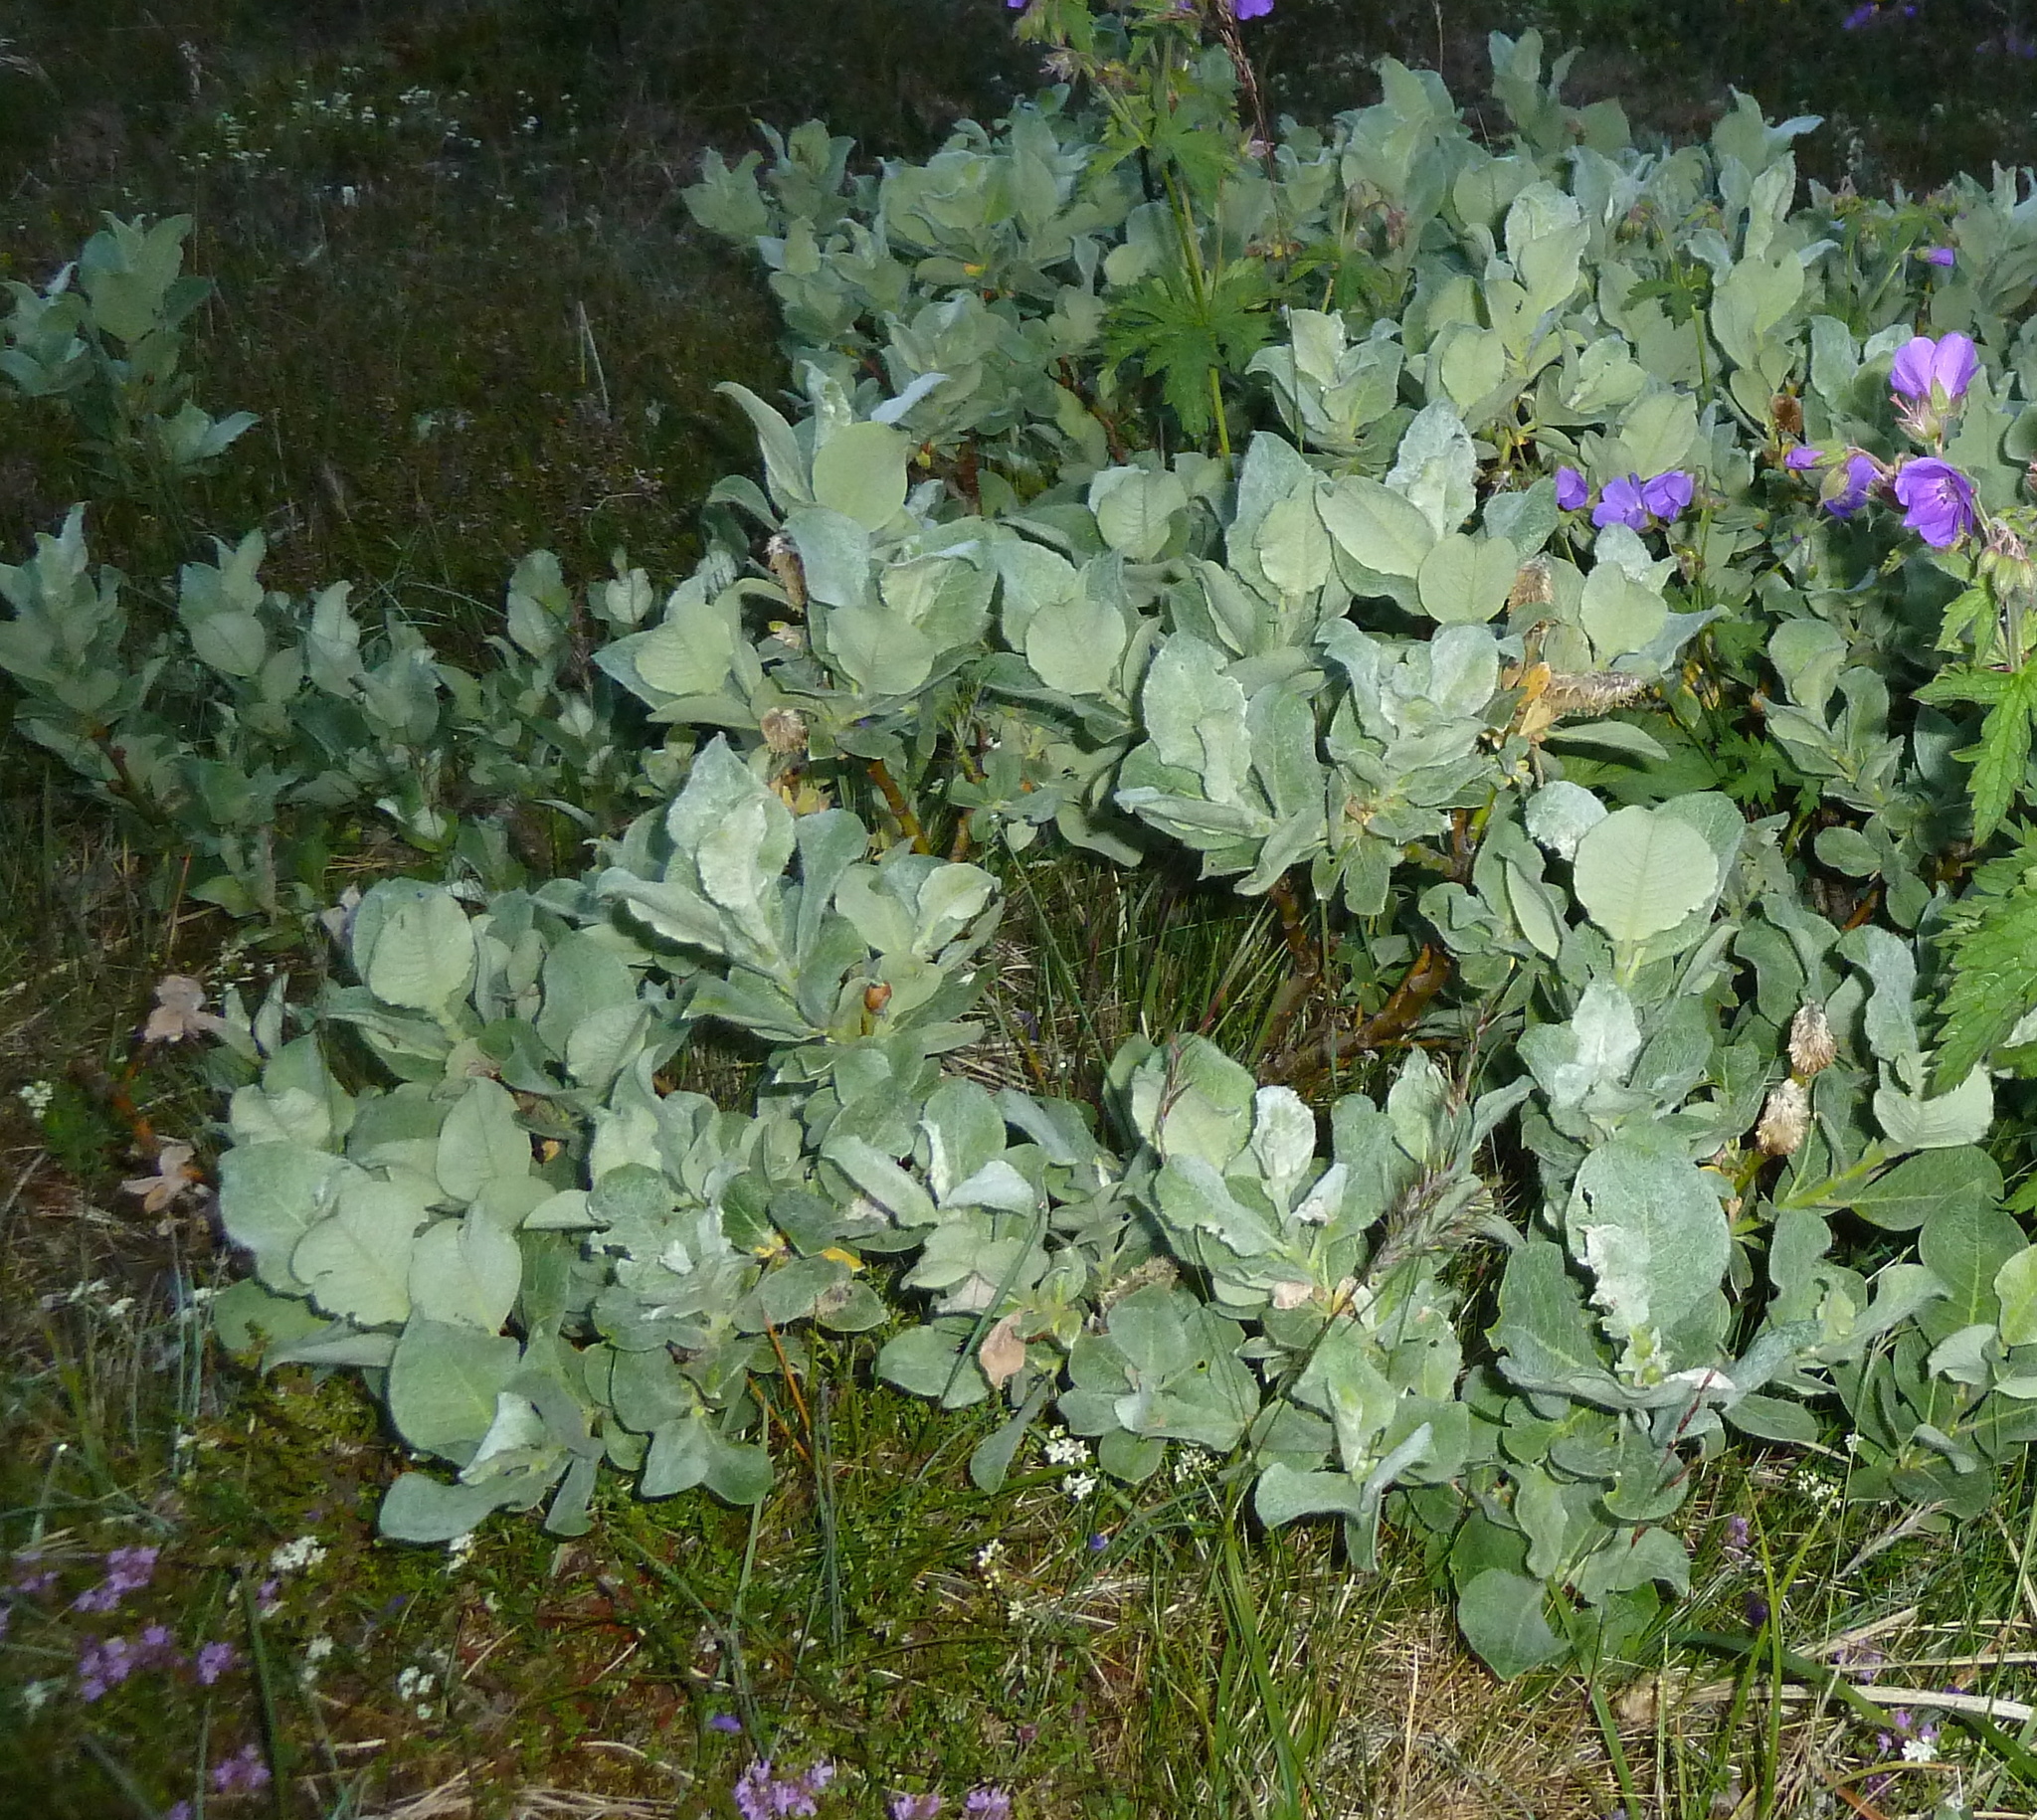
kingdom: Plantae
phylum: Tracheophyta
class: Magnoliopsida
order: Malpighiales
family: Salicaceae
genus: Salix
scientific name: Salix lanata
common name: Woolly willow
